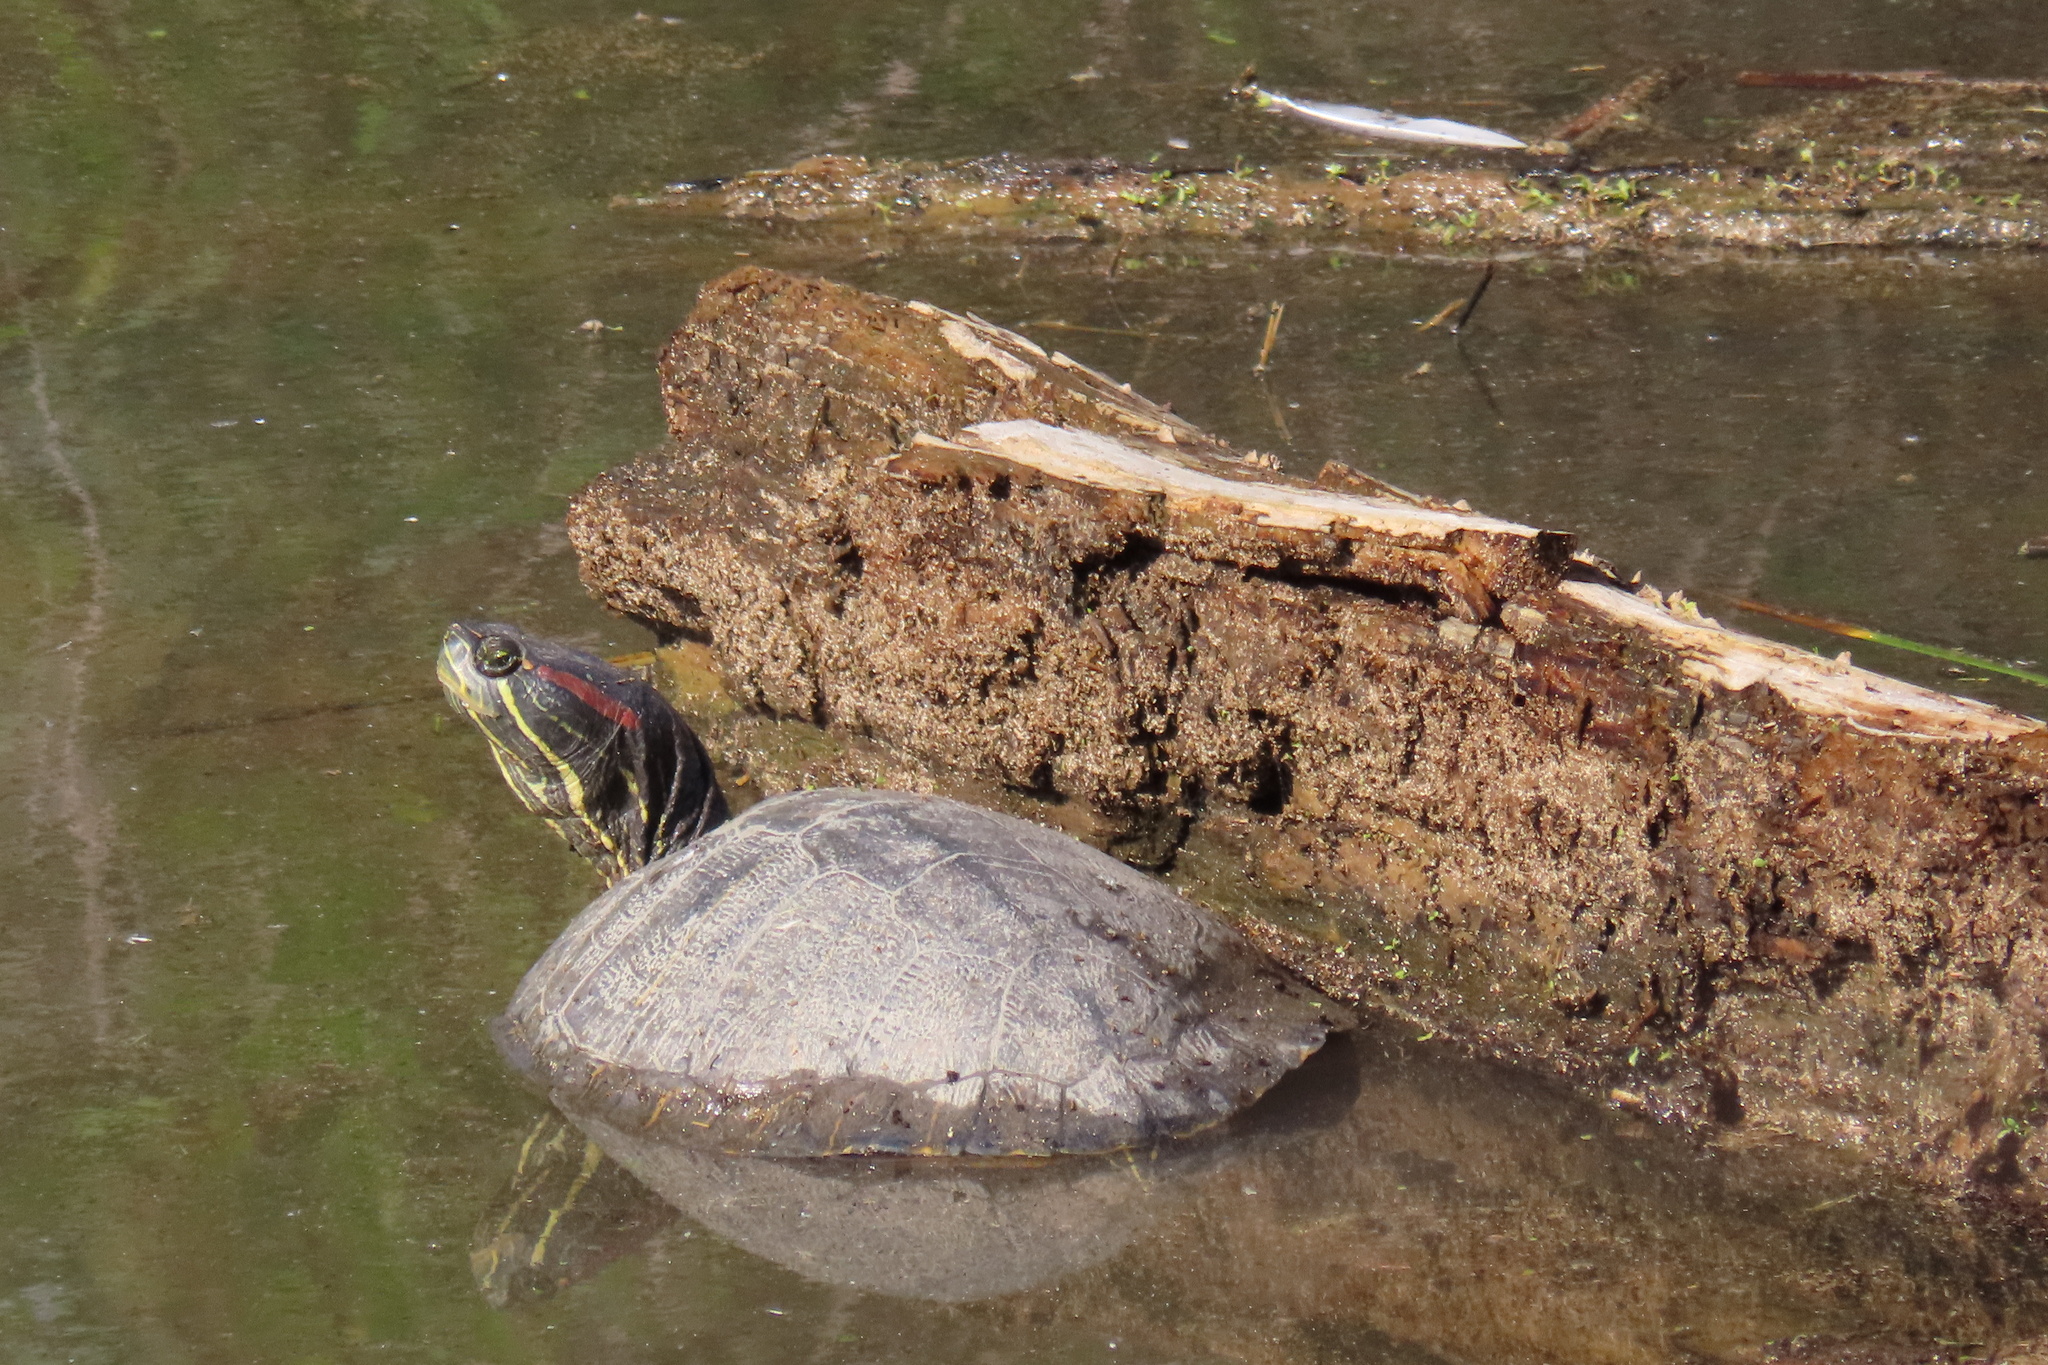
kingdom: Animalia
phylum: Chordata
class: Testudines
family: Emydidae
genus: Trachemys
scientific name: Trachemys scripta
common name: Slider
